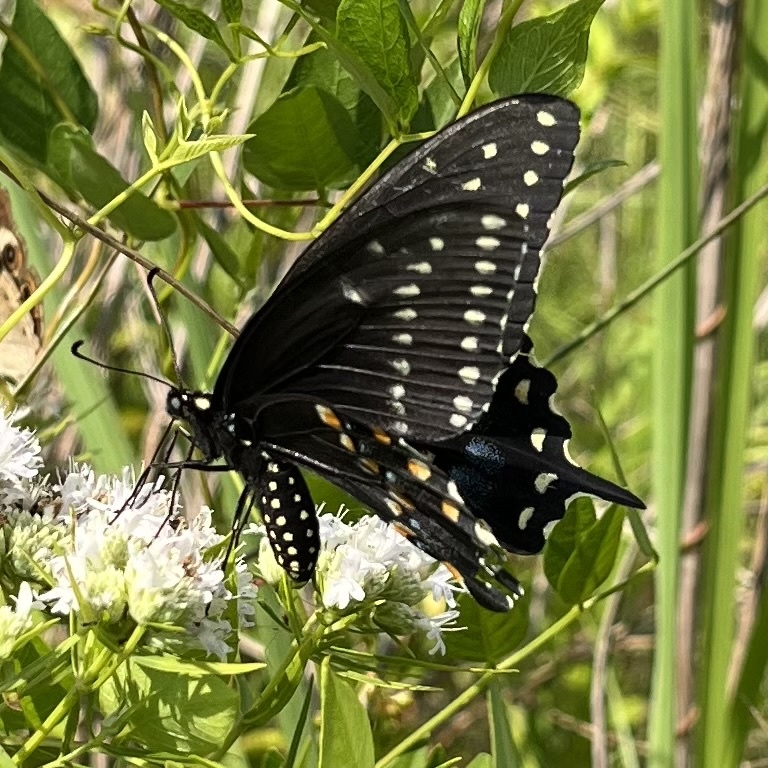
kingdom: Animalia
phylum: Arthropoda
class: Insecta
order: Lepidoptera
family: Papilionidae
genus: Papilio
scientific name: Papilio polyxenes
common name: Black swallowtail
